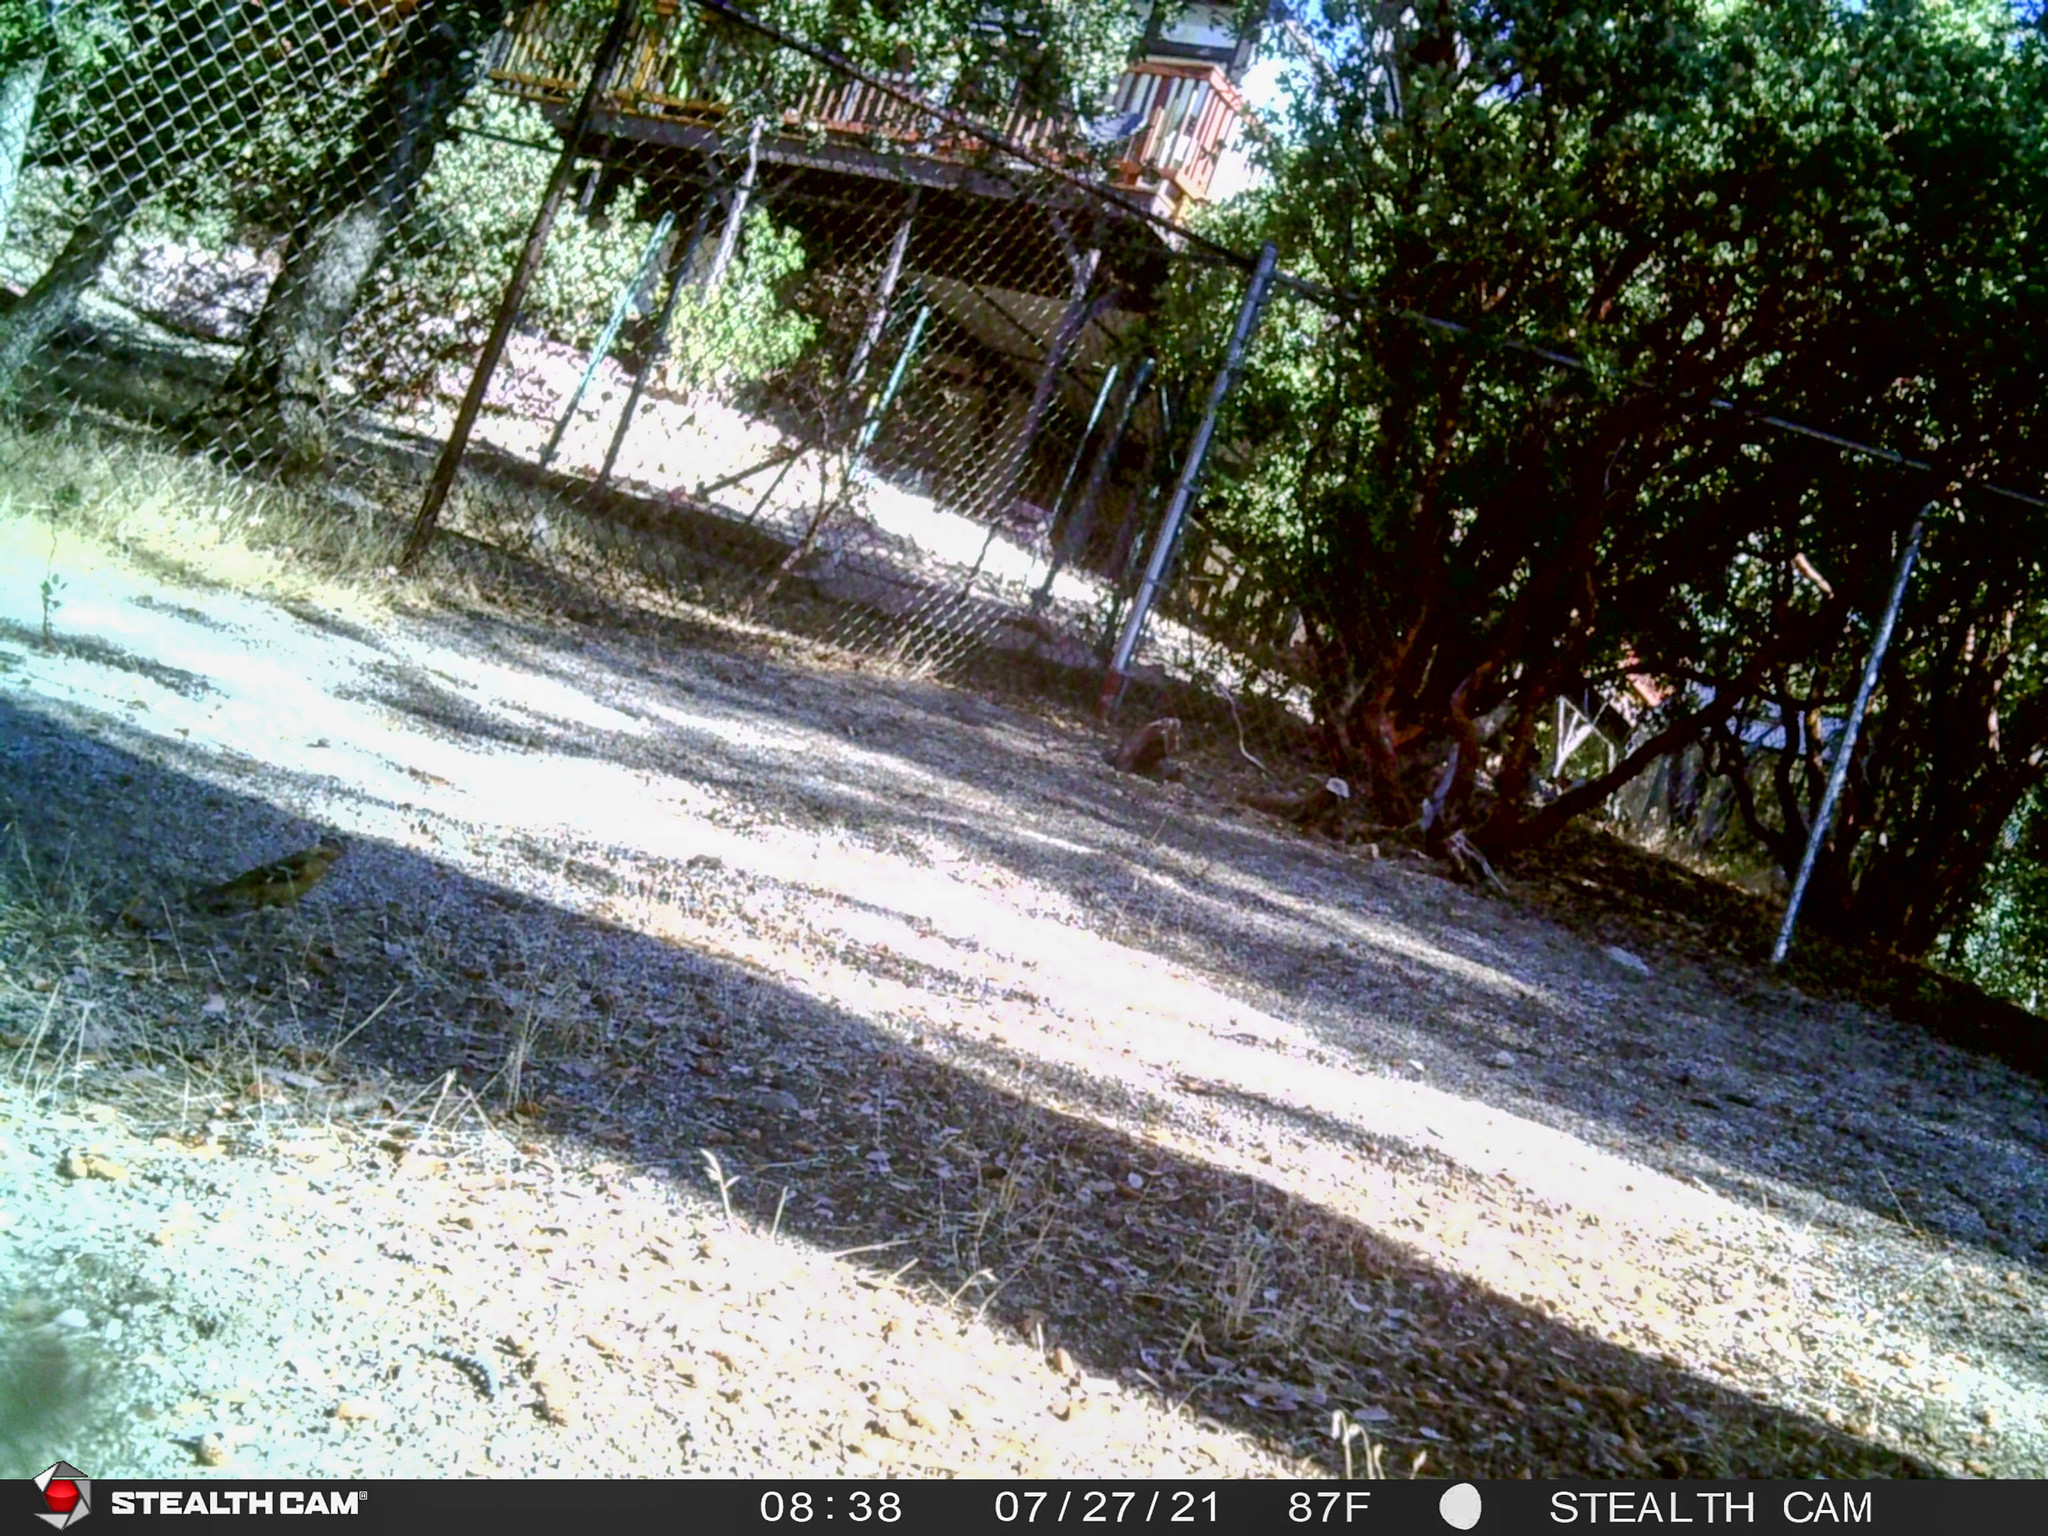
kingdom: Animalia
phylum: Chordata
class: Aves
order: Passeriformes
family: Cardinalidae
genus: Pheucticus
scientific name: Pheucticus melanocephalus
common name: Black-headed grosbeak
